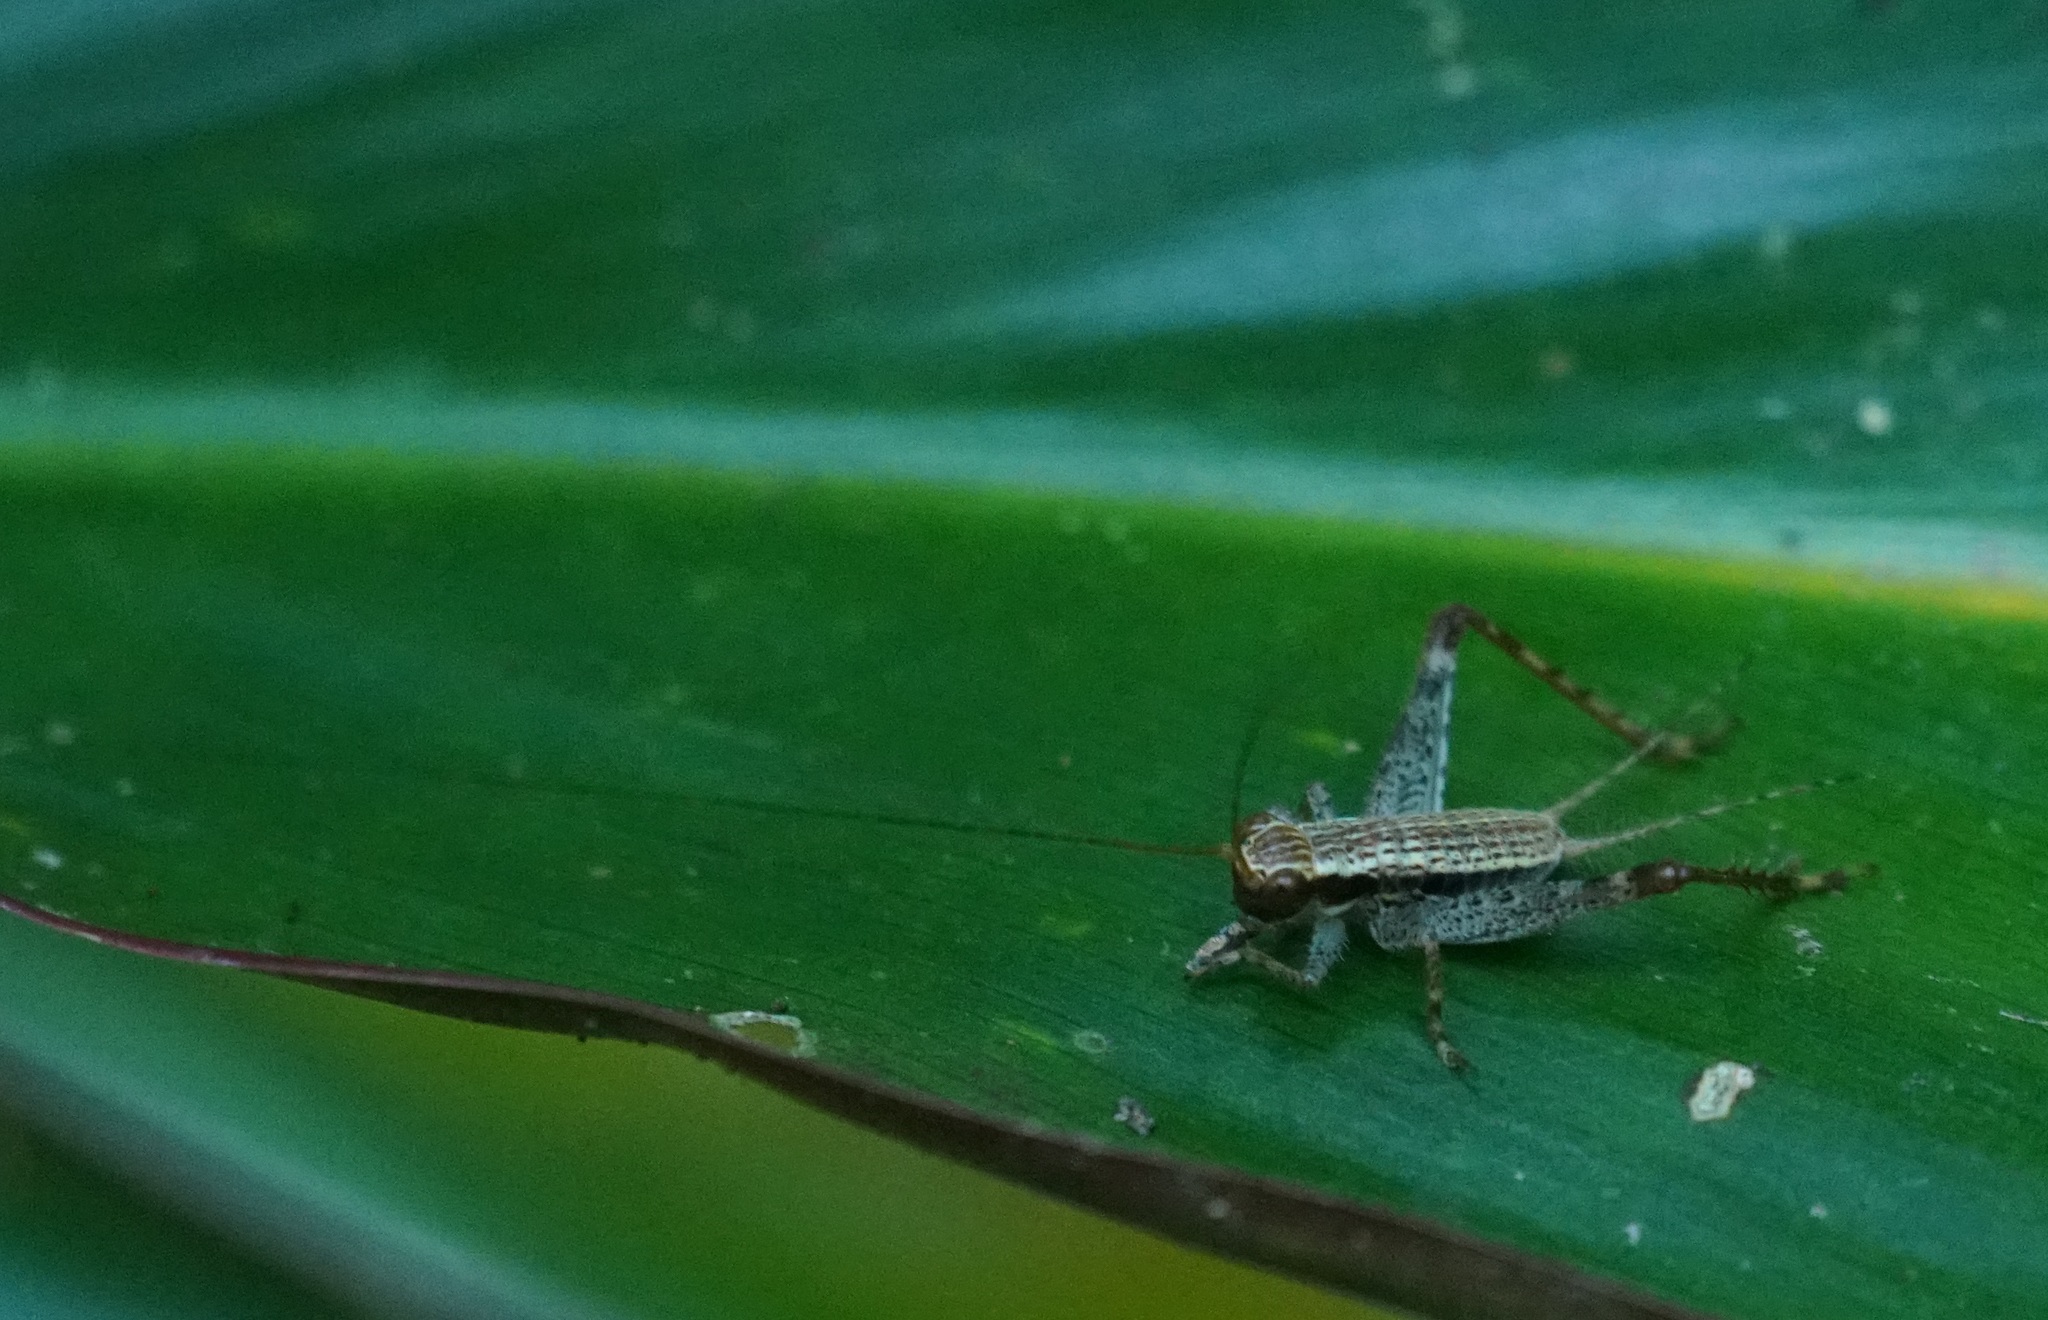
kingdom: Animalia
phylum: Arthropoda
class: Insecta
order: Orthoptera
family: Gryllidae
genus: Cardiodactylus
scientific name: Cardiodactylus novaeguineae
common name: Sad cricket
